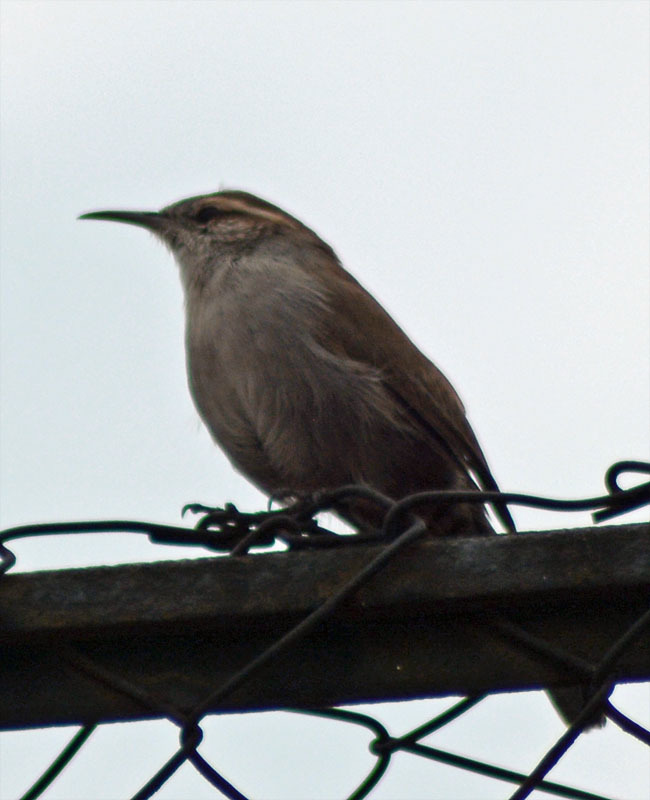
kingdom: Animalia
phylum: Chordata
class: Aves
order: Passeriformes
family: Troglodytidae
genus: Thryomanes
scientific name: Thryomanes bewickii
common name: Bewick's wren
